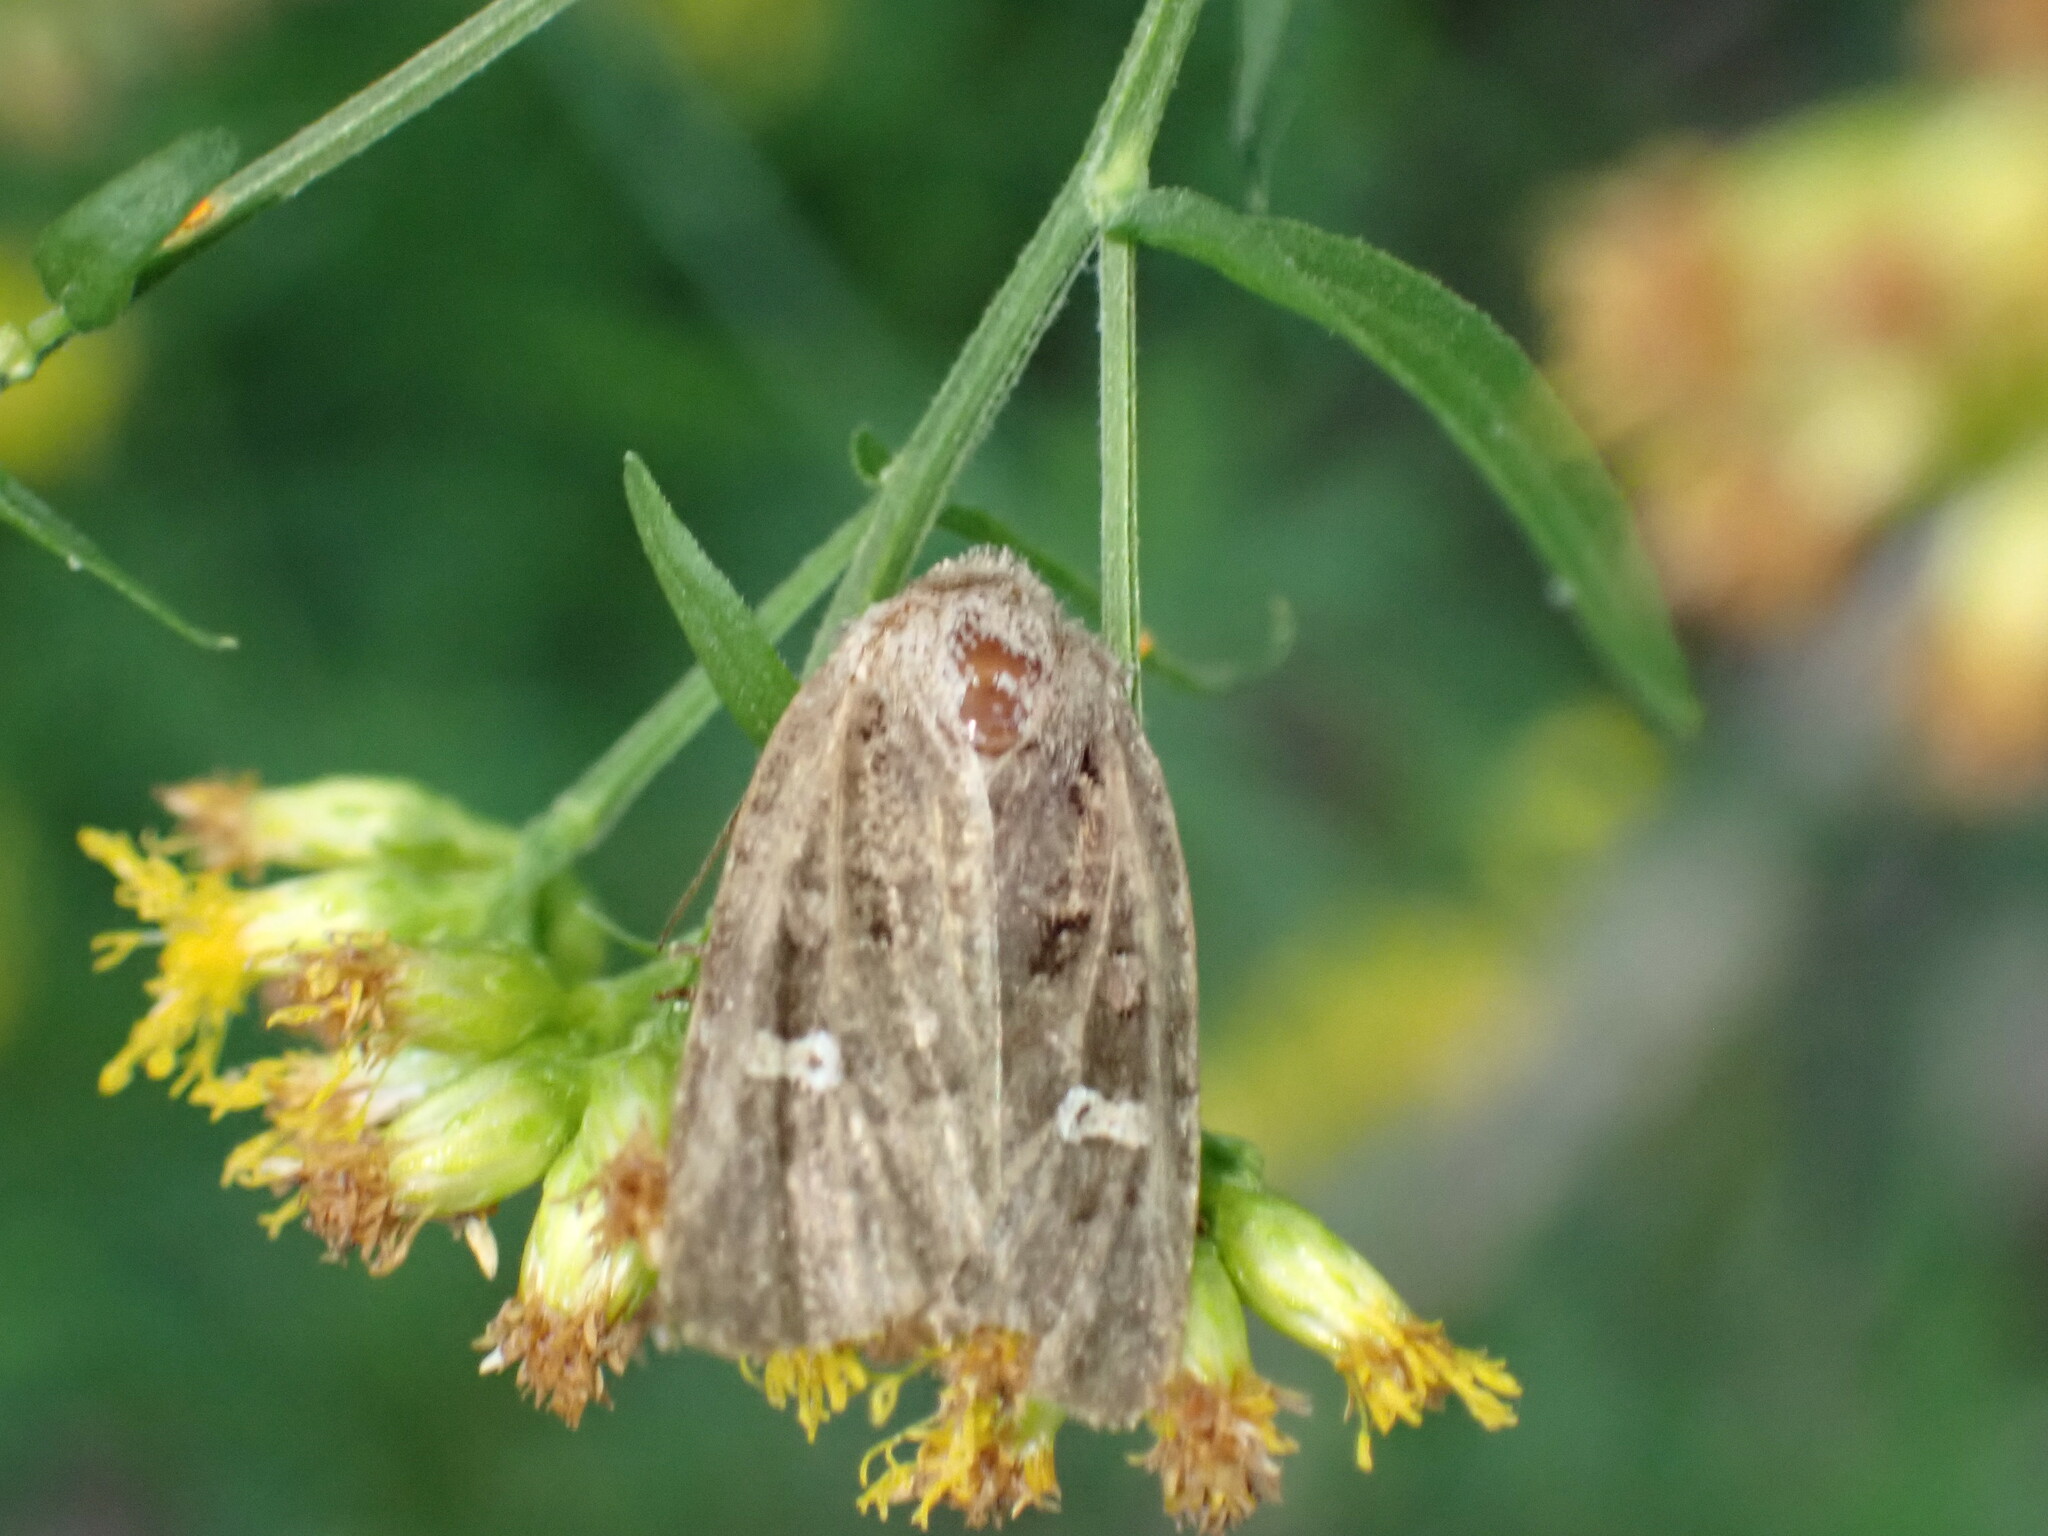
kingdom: Animalia
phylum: Arthropoda
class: Insecta
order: Lepidoptera
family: Noctuidae
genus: Lacinipolia
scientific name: Lacinipolia renigera
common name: Kidney-spotted minor
